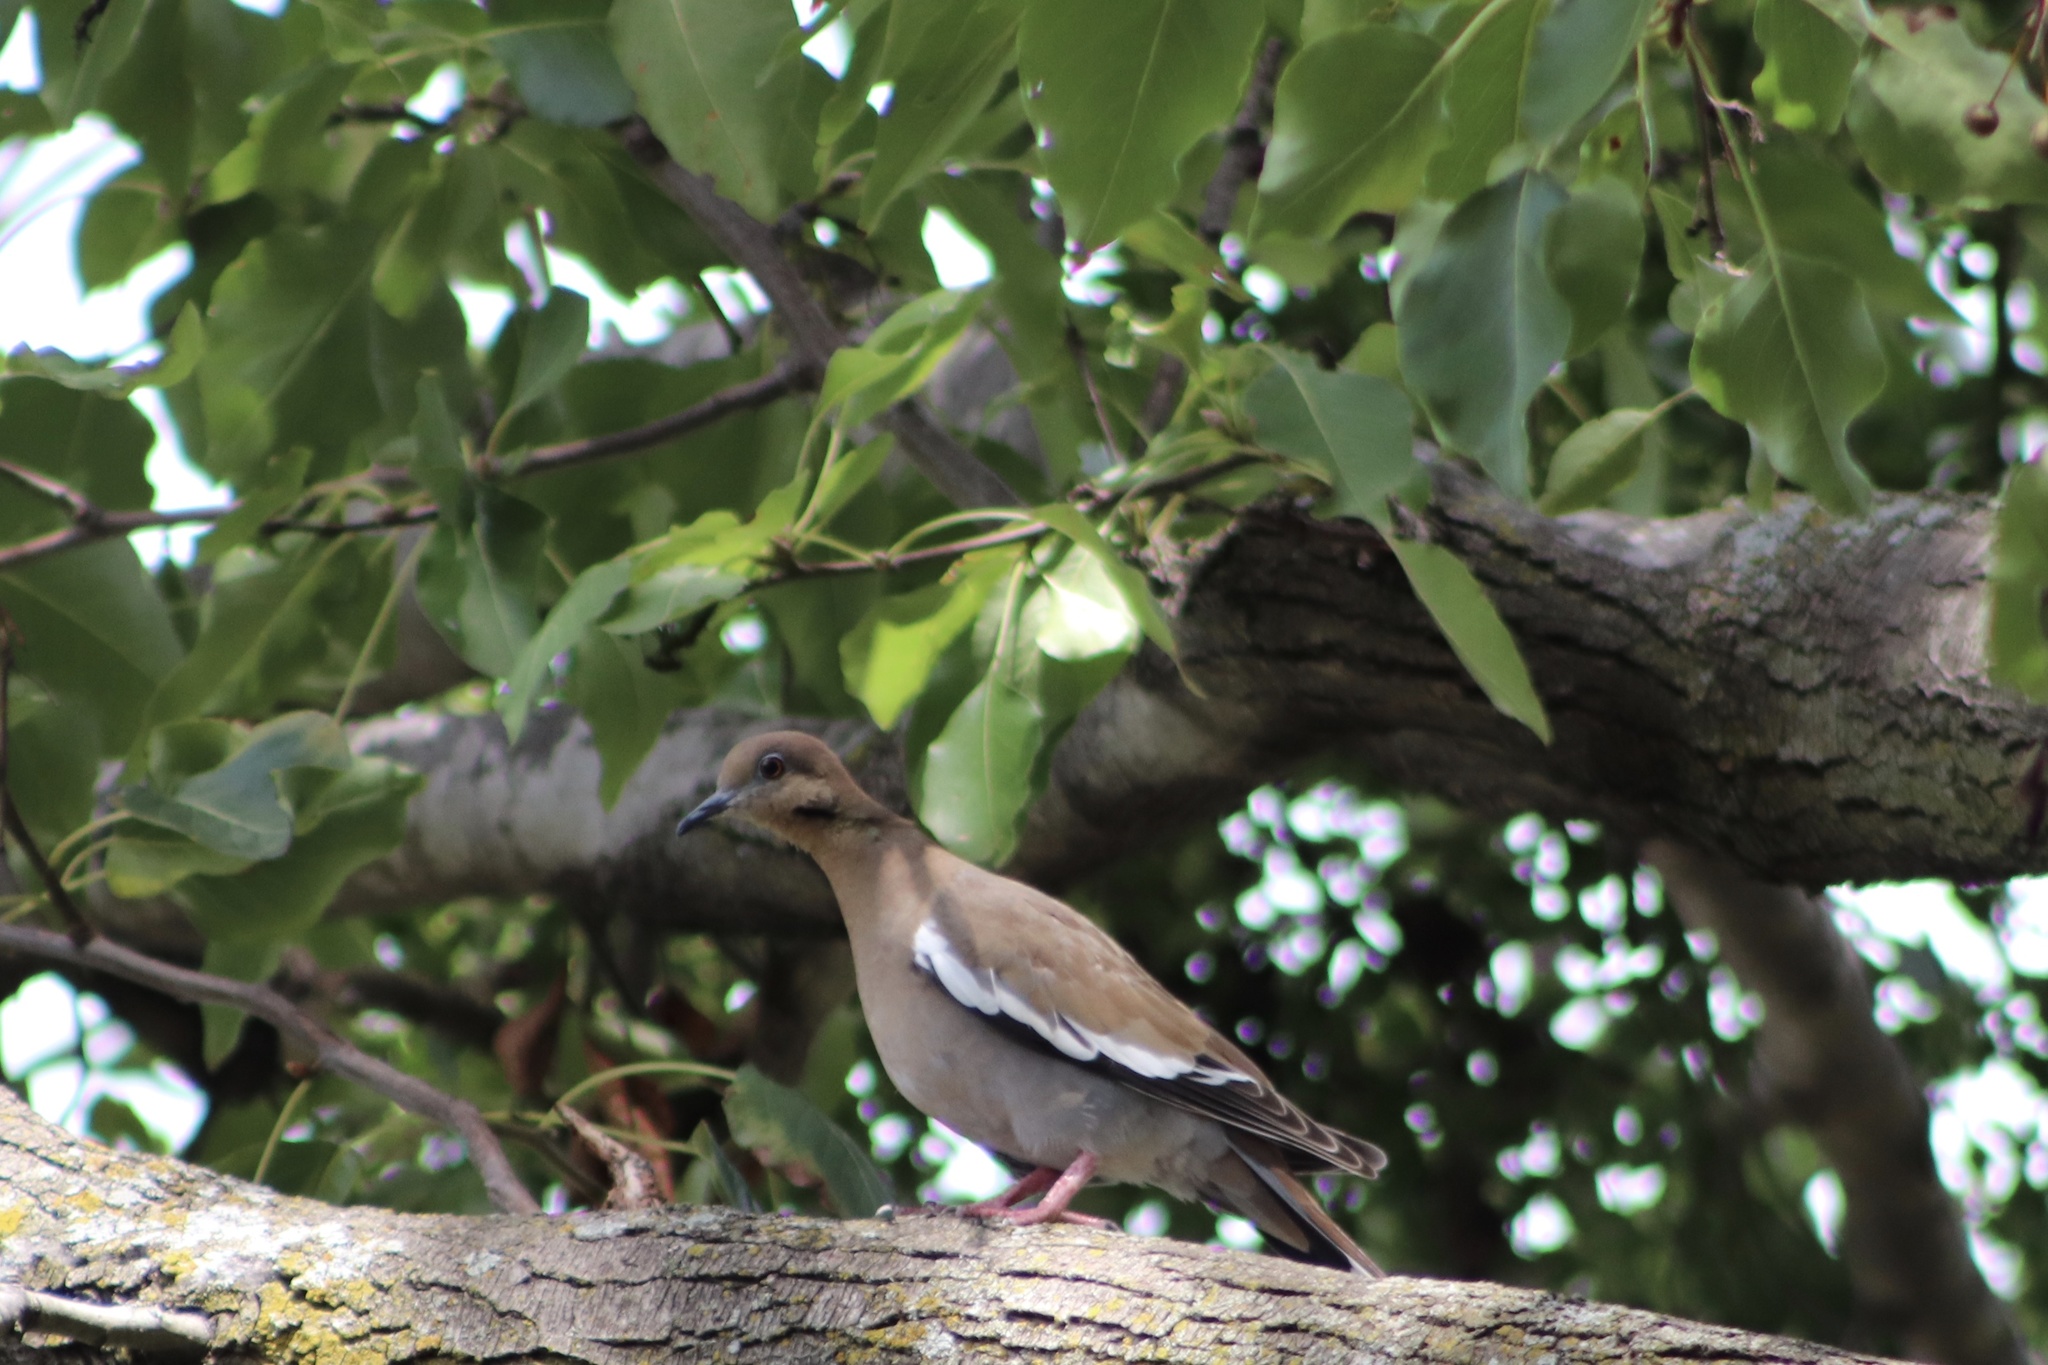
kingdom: Animalia
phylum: Chordata
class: Aves
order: Columbiformes
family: Columbidae
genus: Zenaida
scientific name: Zenaida asiatica
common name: White-winged dove
